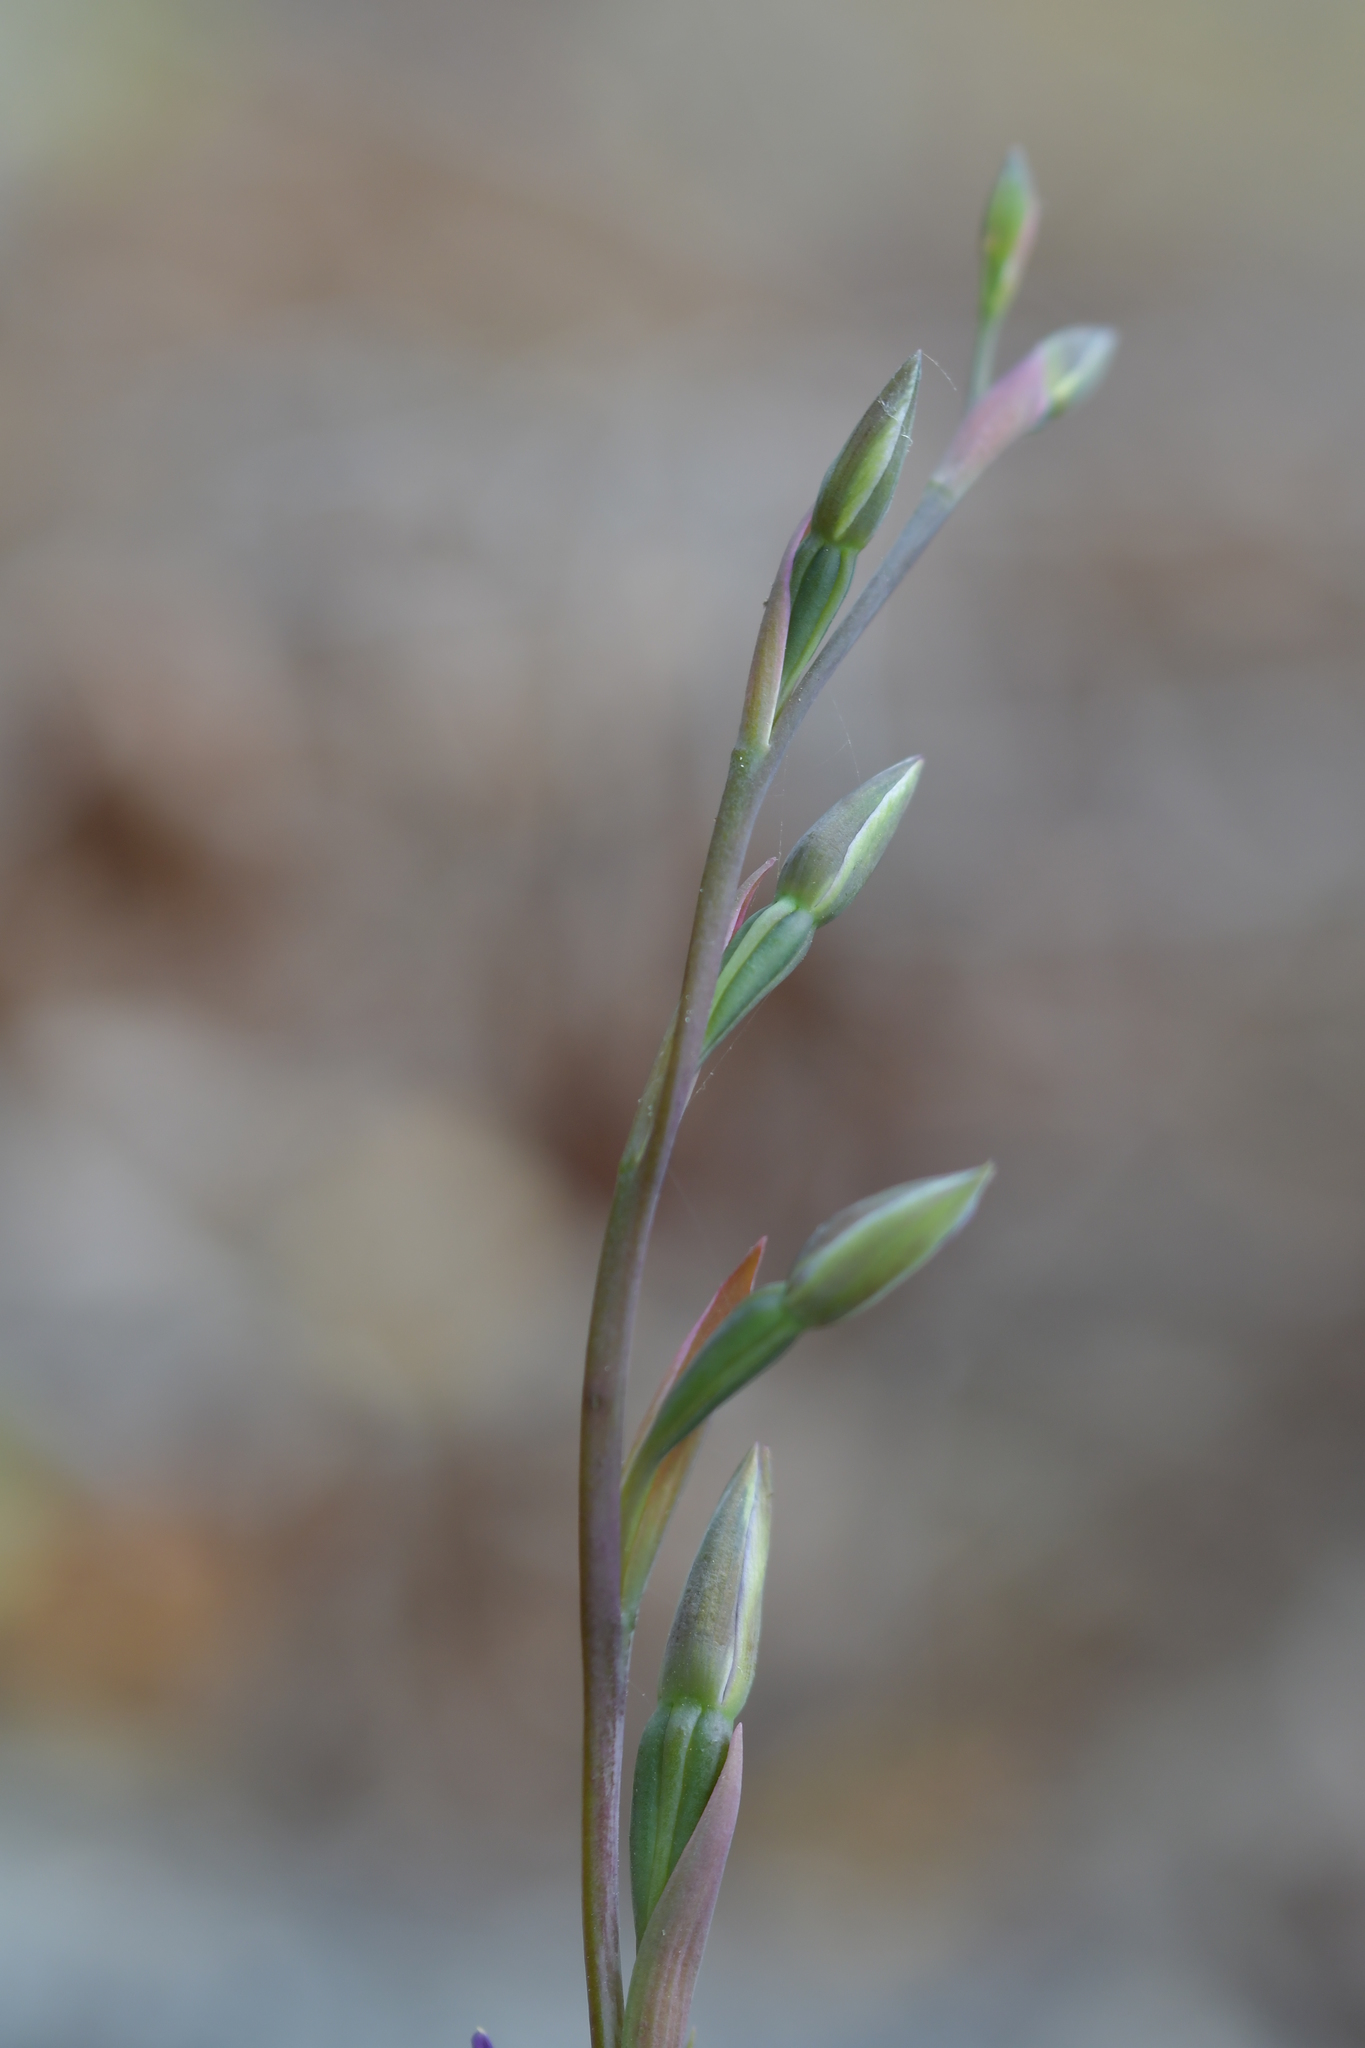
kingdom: Plantae
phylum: Tracheophyta
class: Liliopsida
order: Asparagales
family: Orchidaceae
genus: Thelymitra
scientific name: Thelymitra formosa
